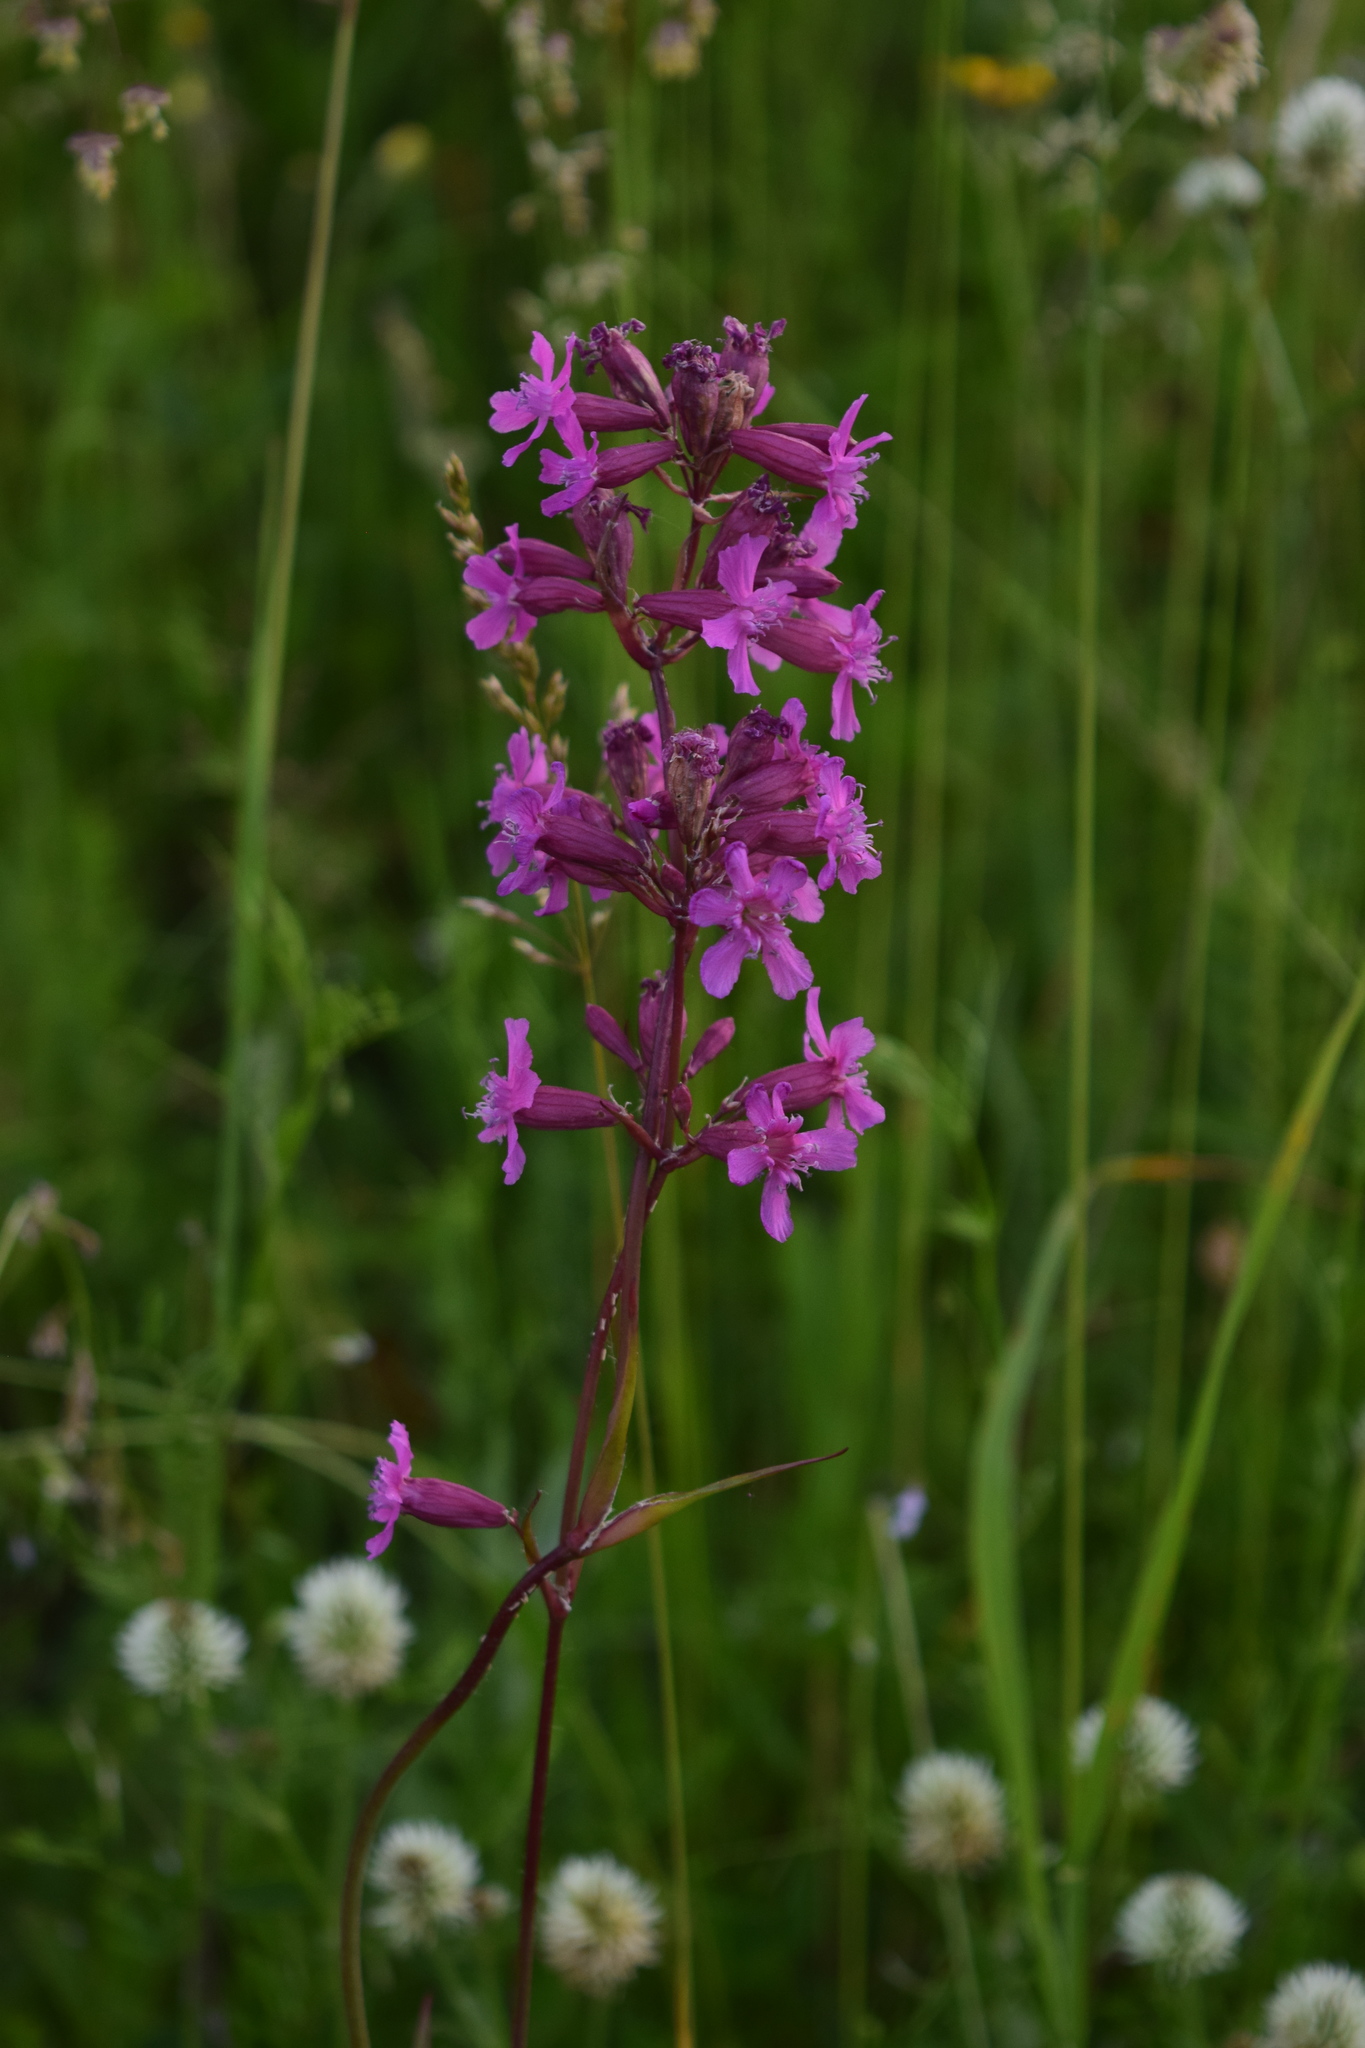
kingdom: Plantae
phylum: Tracheophyta
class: Magnoliopsida
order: Caryophyllales
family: Caryophyllaceae
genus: Viscaria
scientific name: Viscaria vulgaris
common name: Clammy campion
